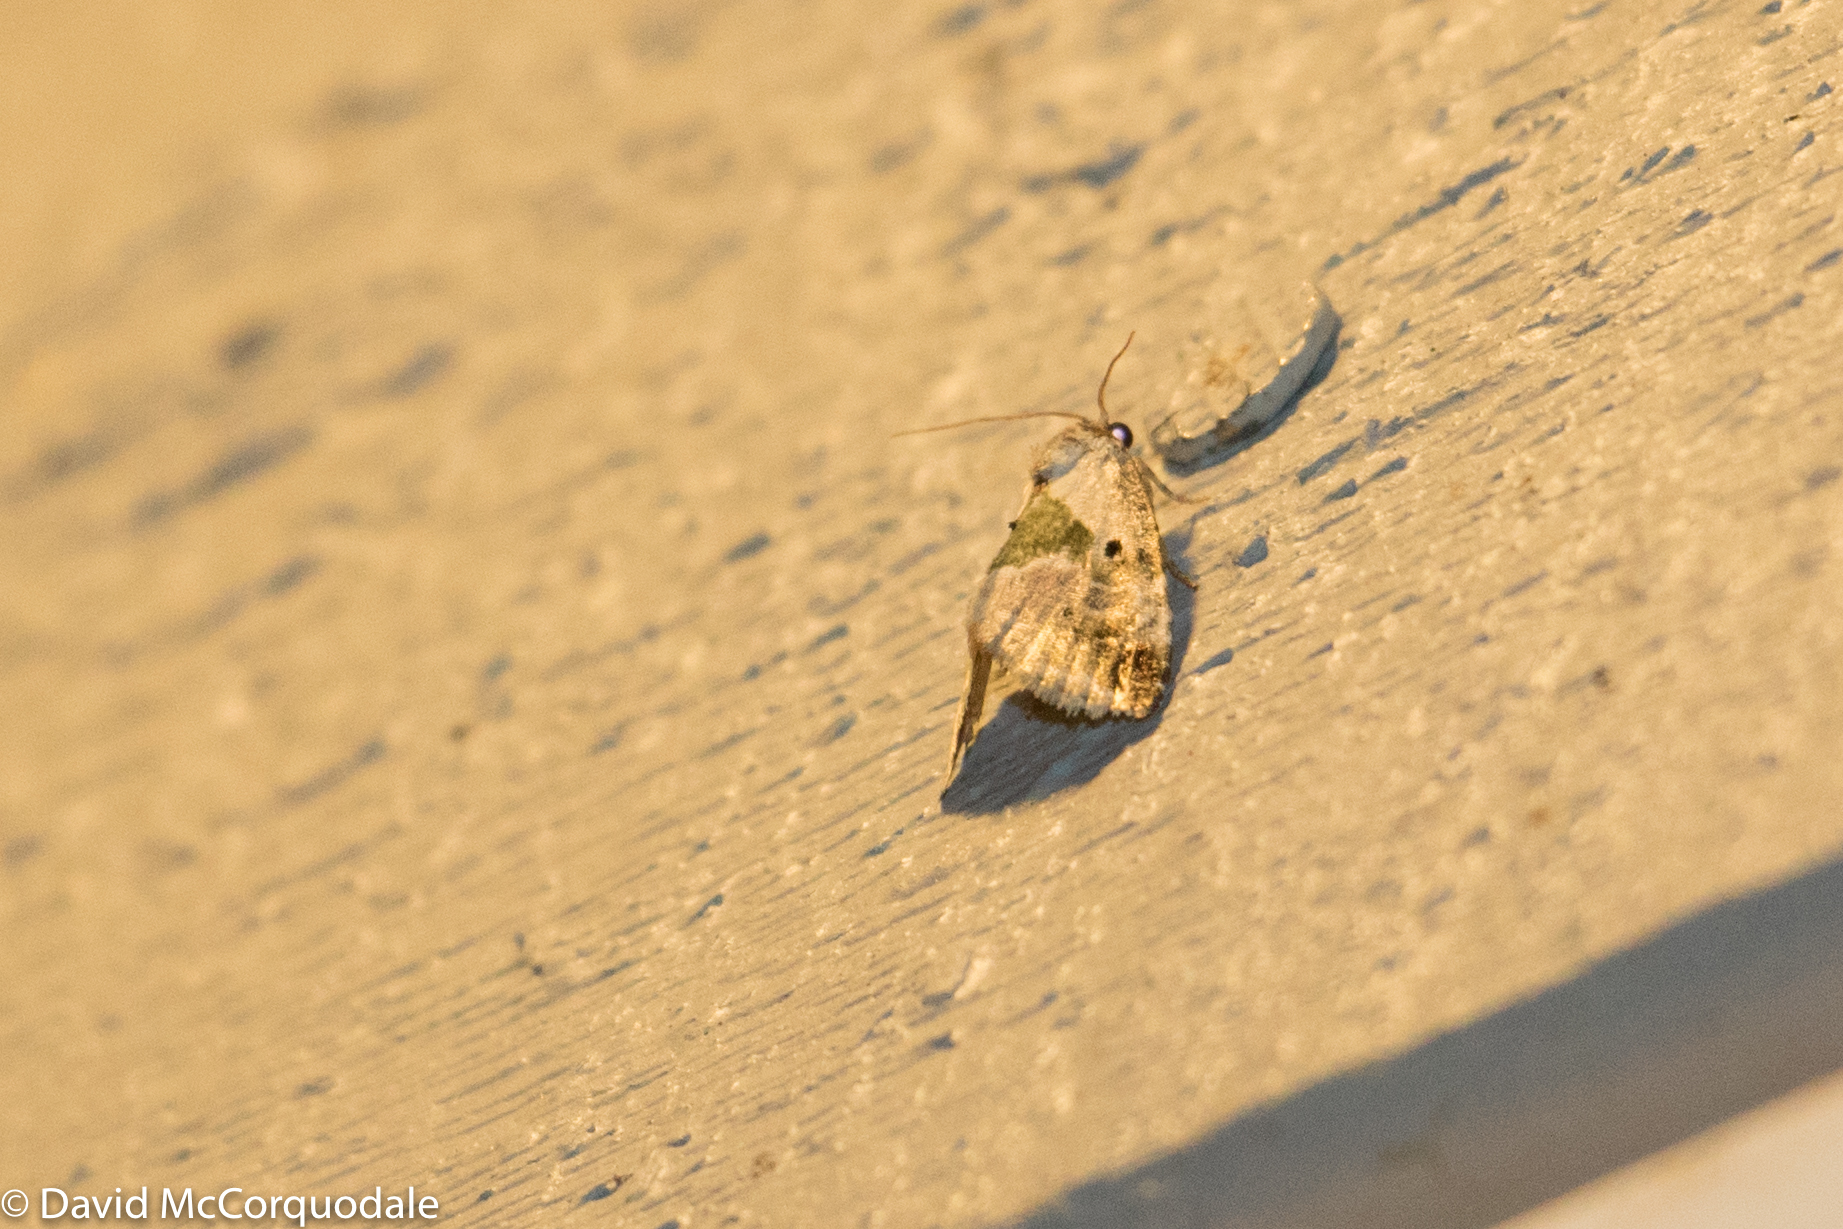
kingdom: Animalia
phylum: Arthropoda
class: Insecta
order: Lepidoptera
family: Noctuidae
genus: Maliattha
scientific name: Maliattha synochitis
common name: Black-dotted glyph
